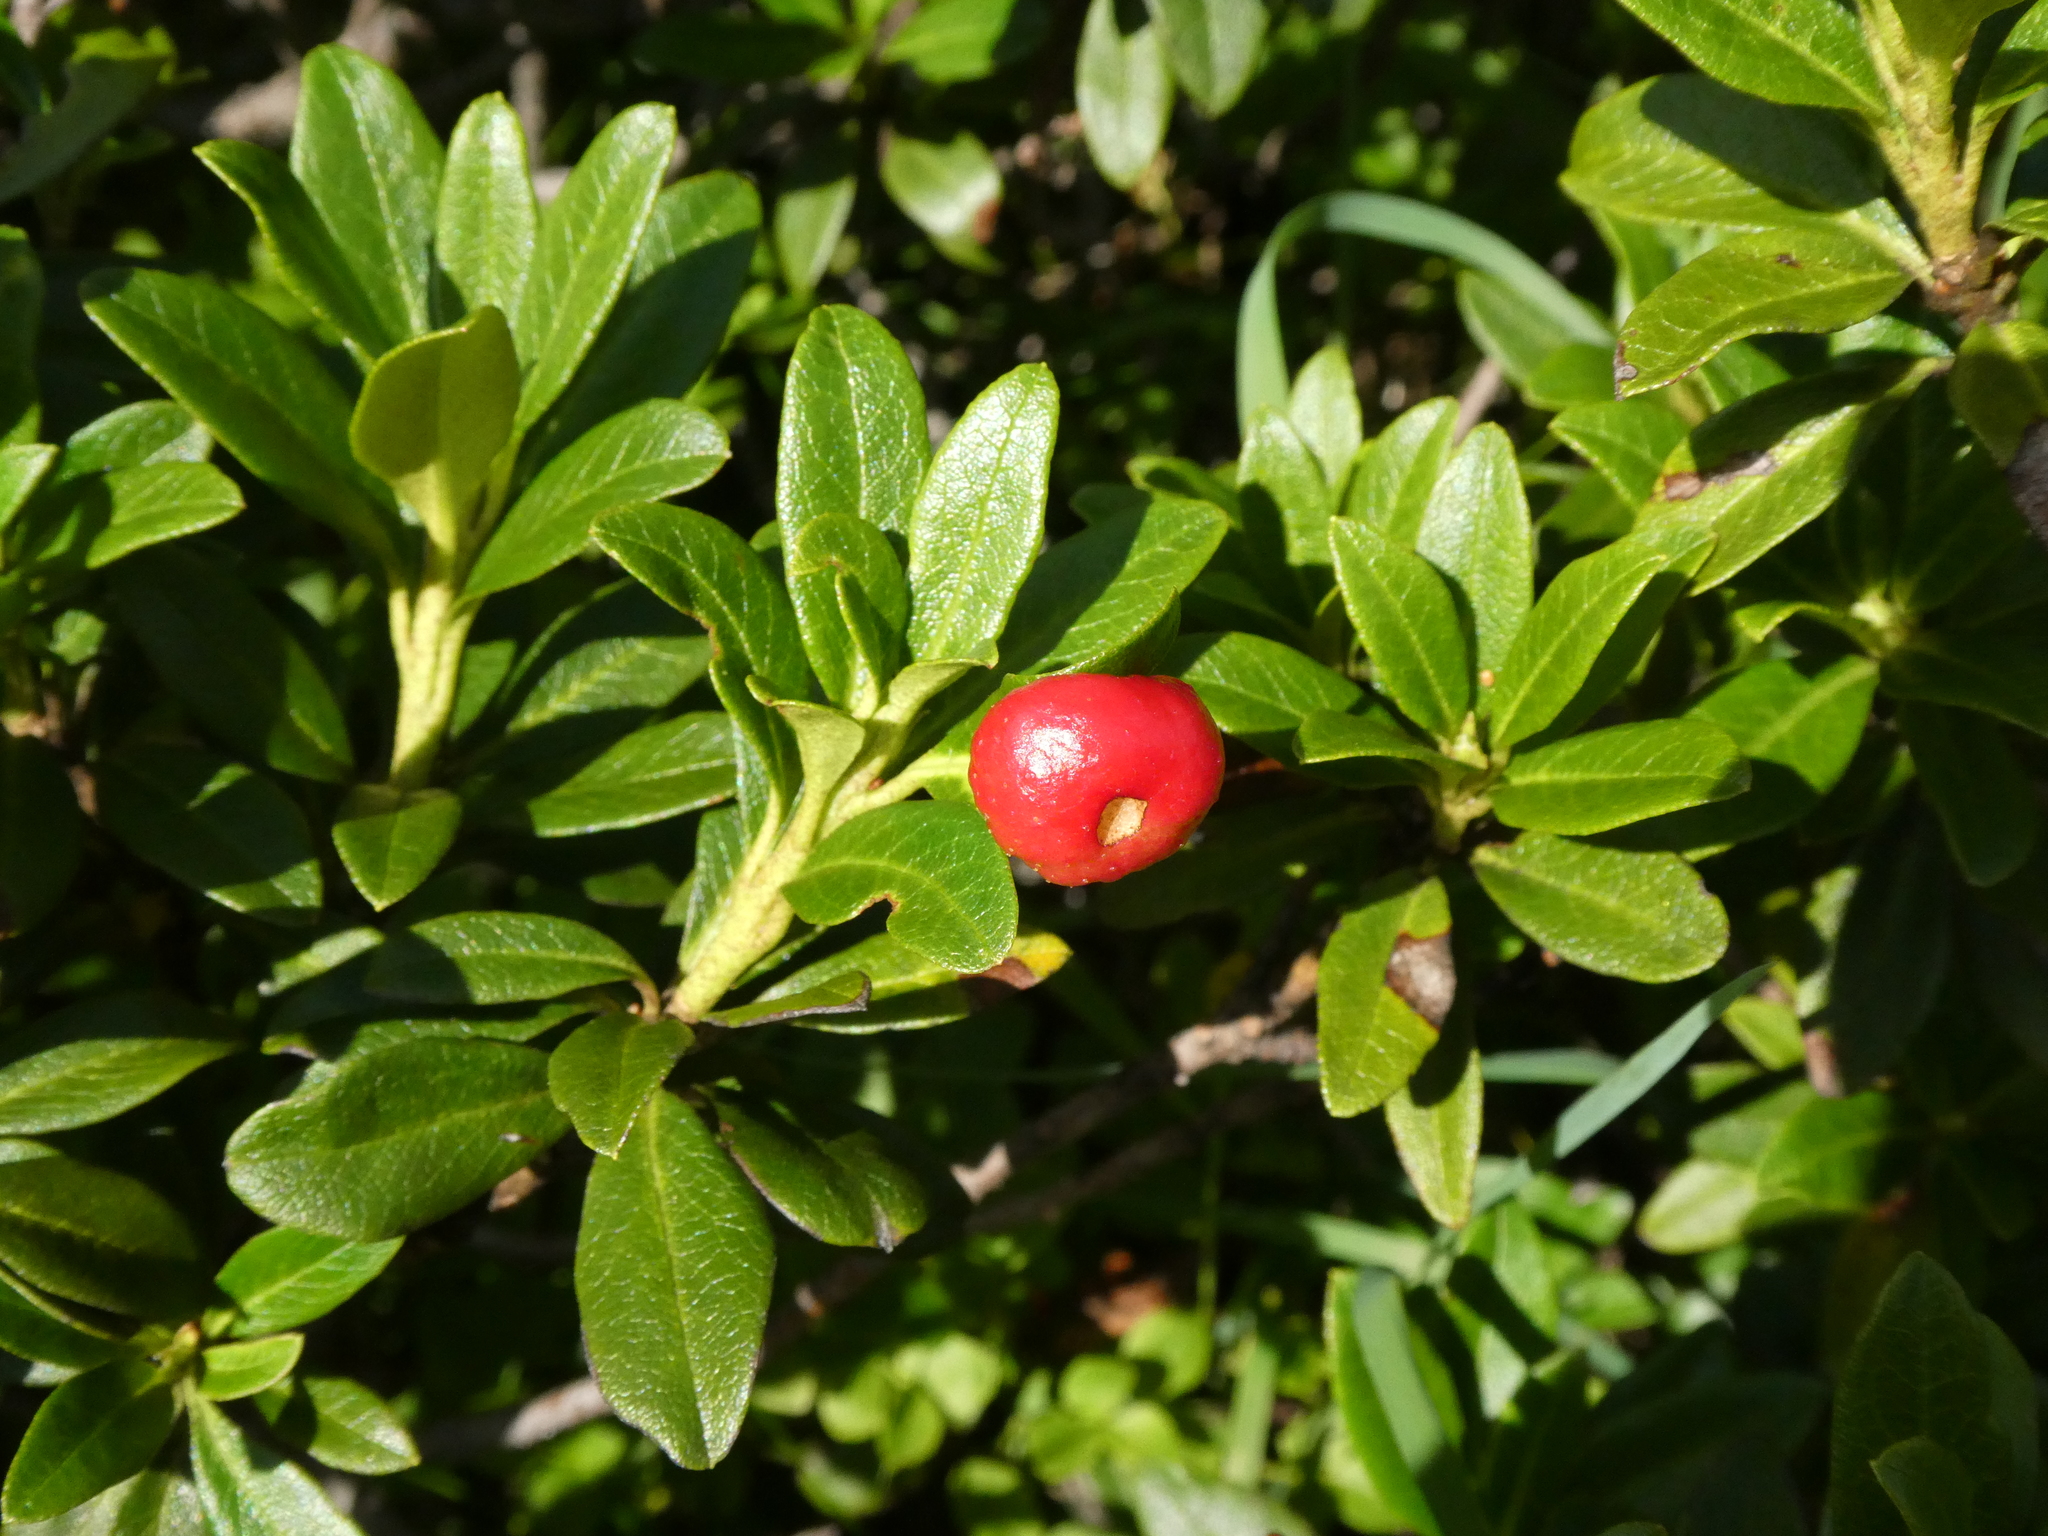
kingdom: Fungi
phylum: Basidiomycota
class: Exobasidiomycetes
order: Exobasidiales
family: Exobasidiaceae
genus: Exobasidium
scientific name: Exobasidium rhododendri
